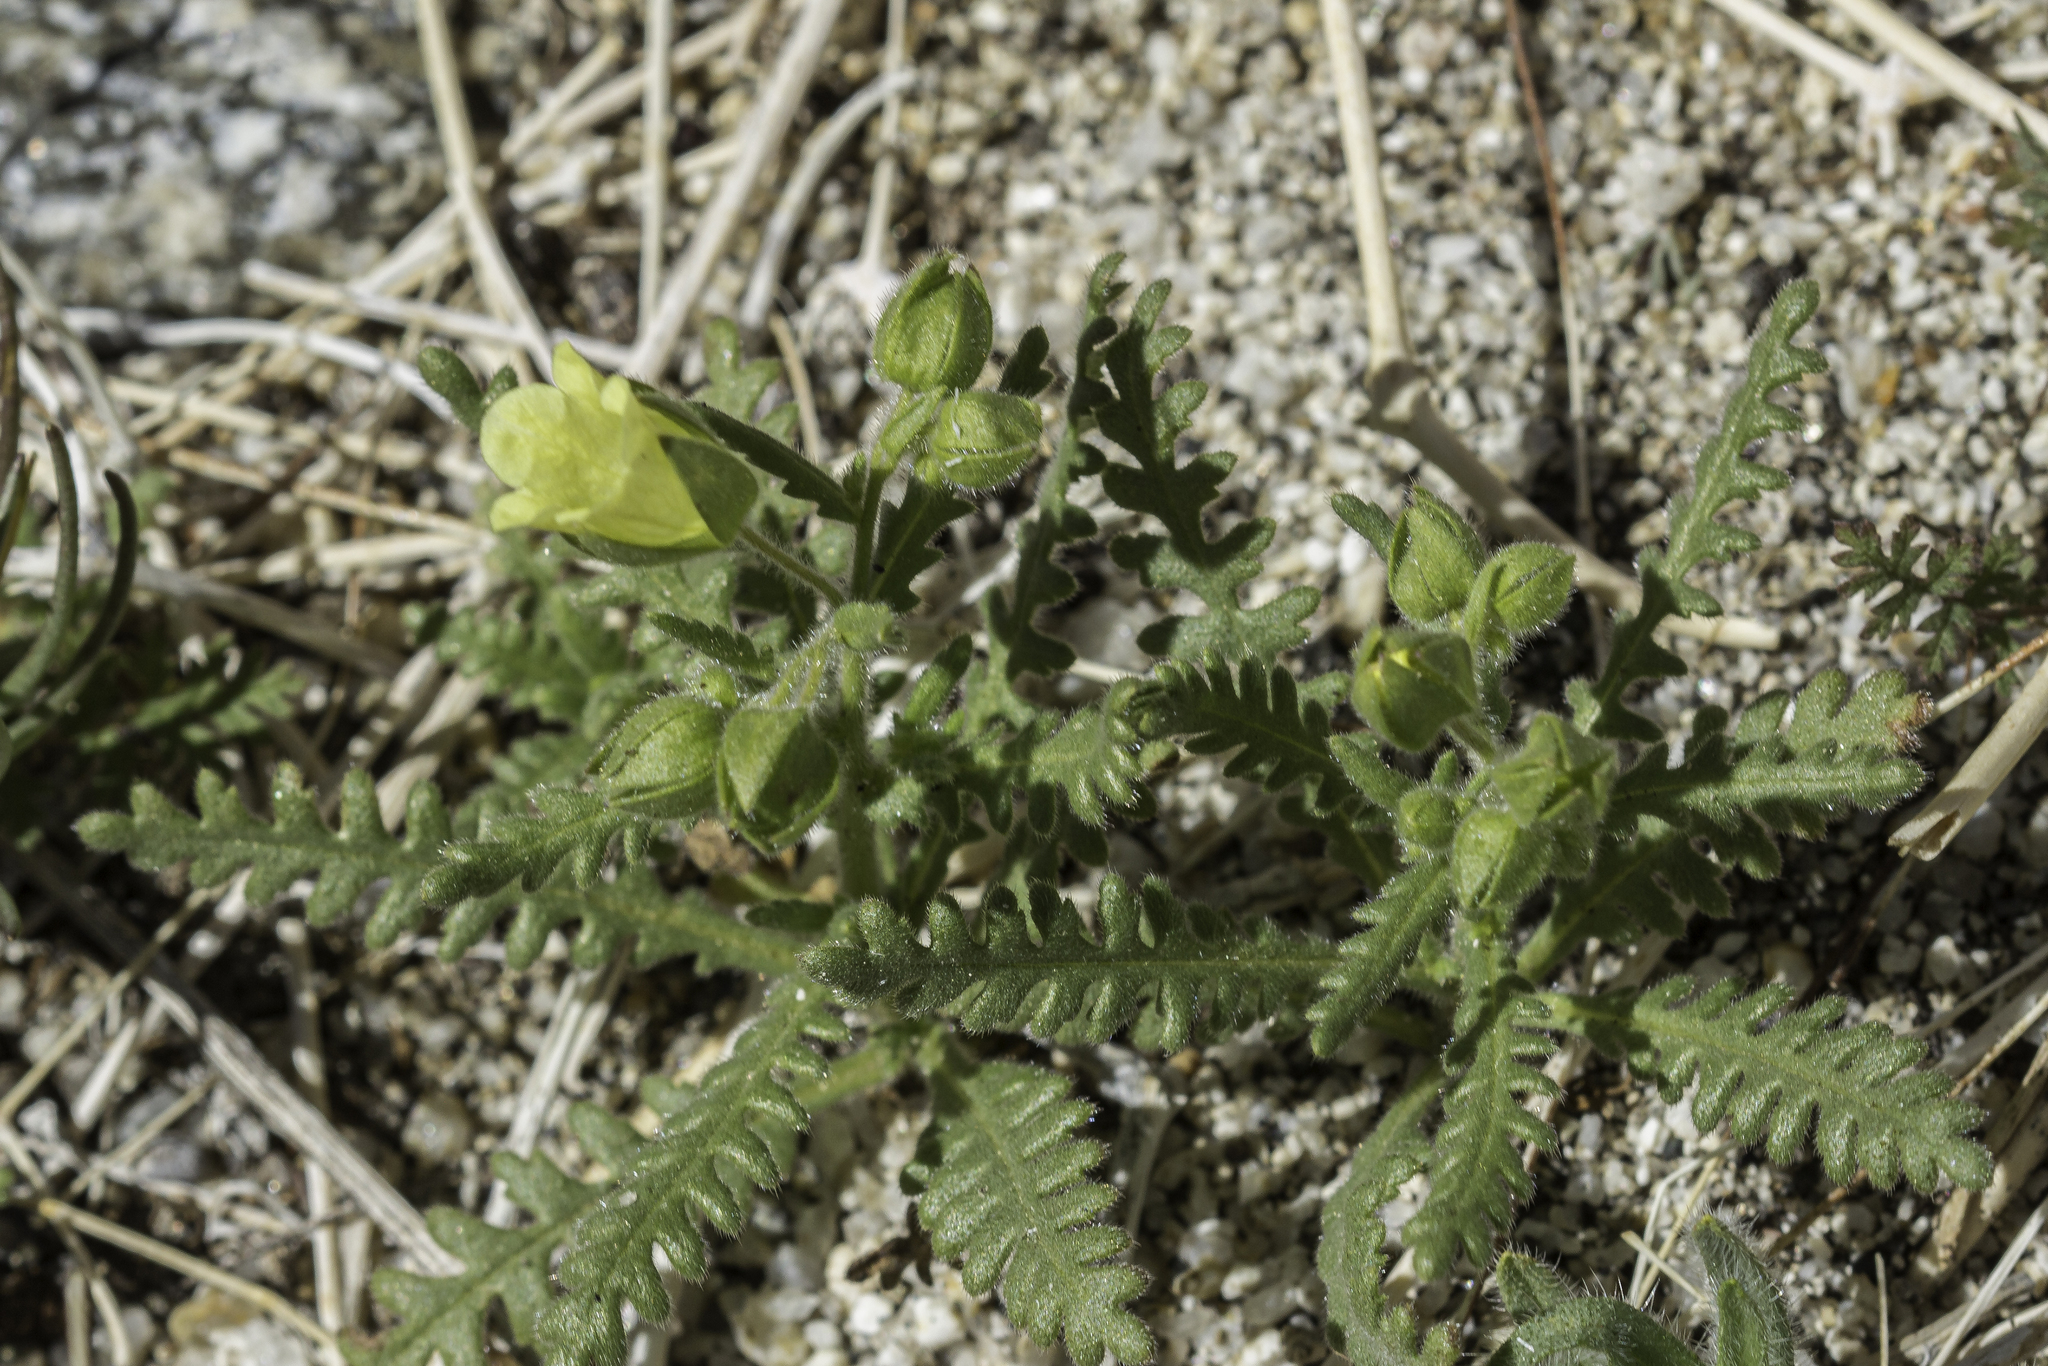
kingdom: Plantae
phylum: Tracheophyta
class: Magnoliopsida
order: Boraginales
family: Hydrophyllaceae
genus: Emmenanthe
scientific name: Emmenanthe penduliflora
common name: Whispering-bells
